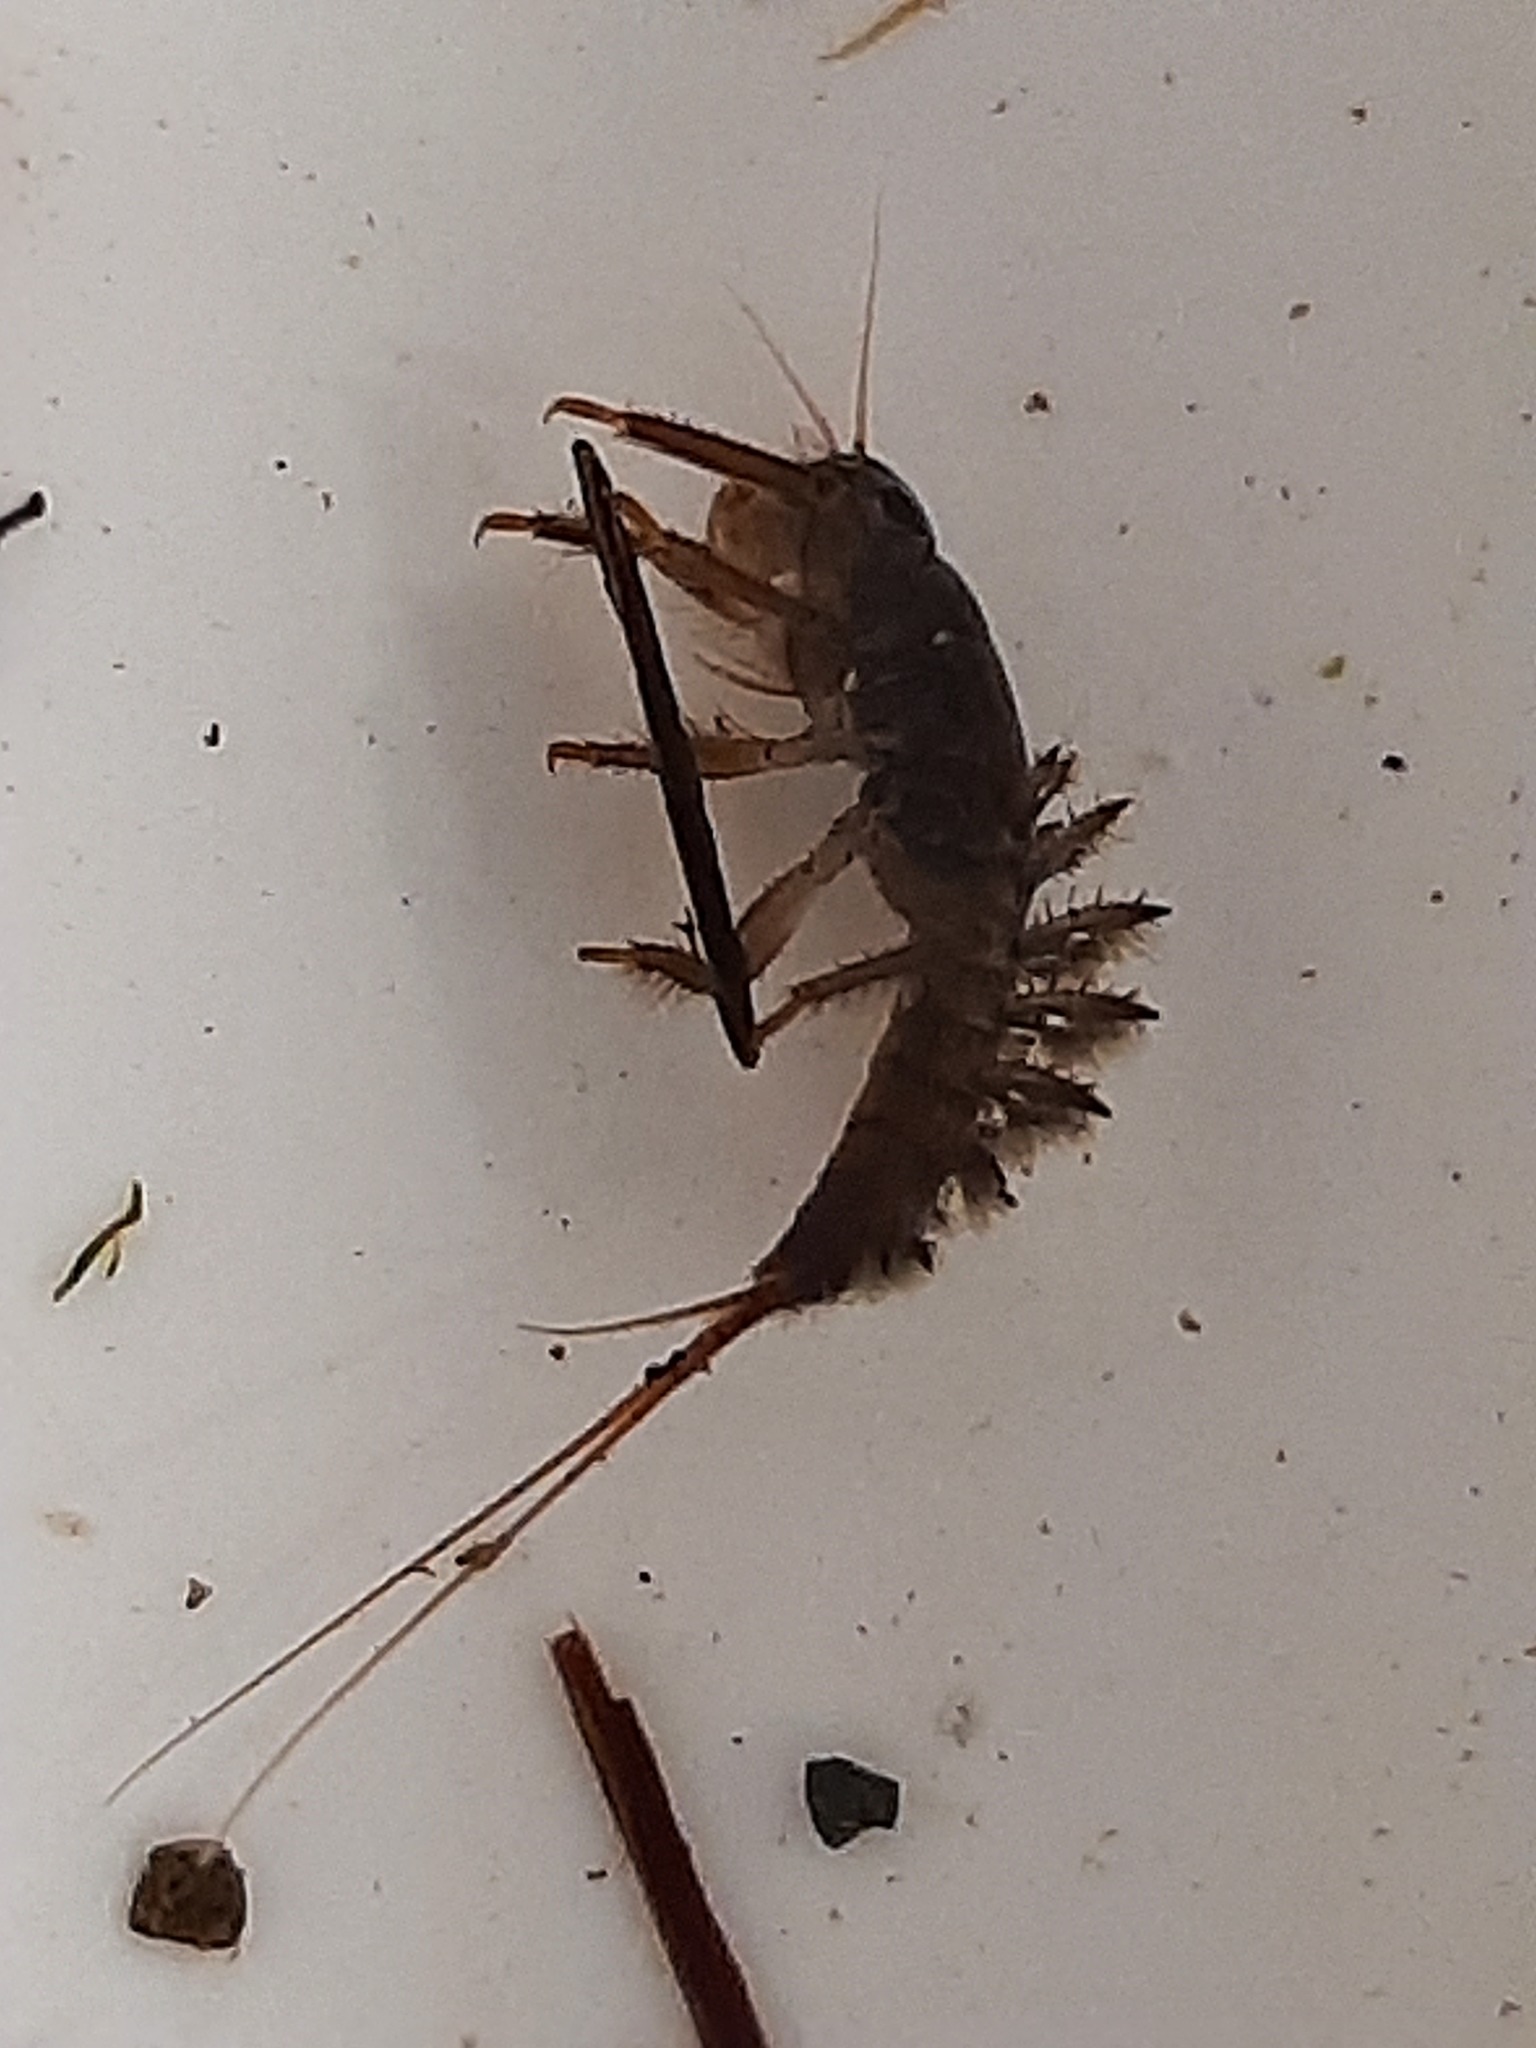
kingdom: Animalia
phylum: Arthropoda
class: Insecta
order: Ephemeroptera
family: Coloburiscidae
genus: Coloburiscus
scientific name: Coloburiscus humeralis
